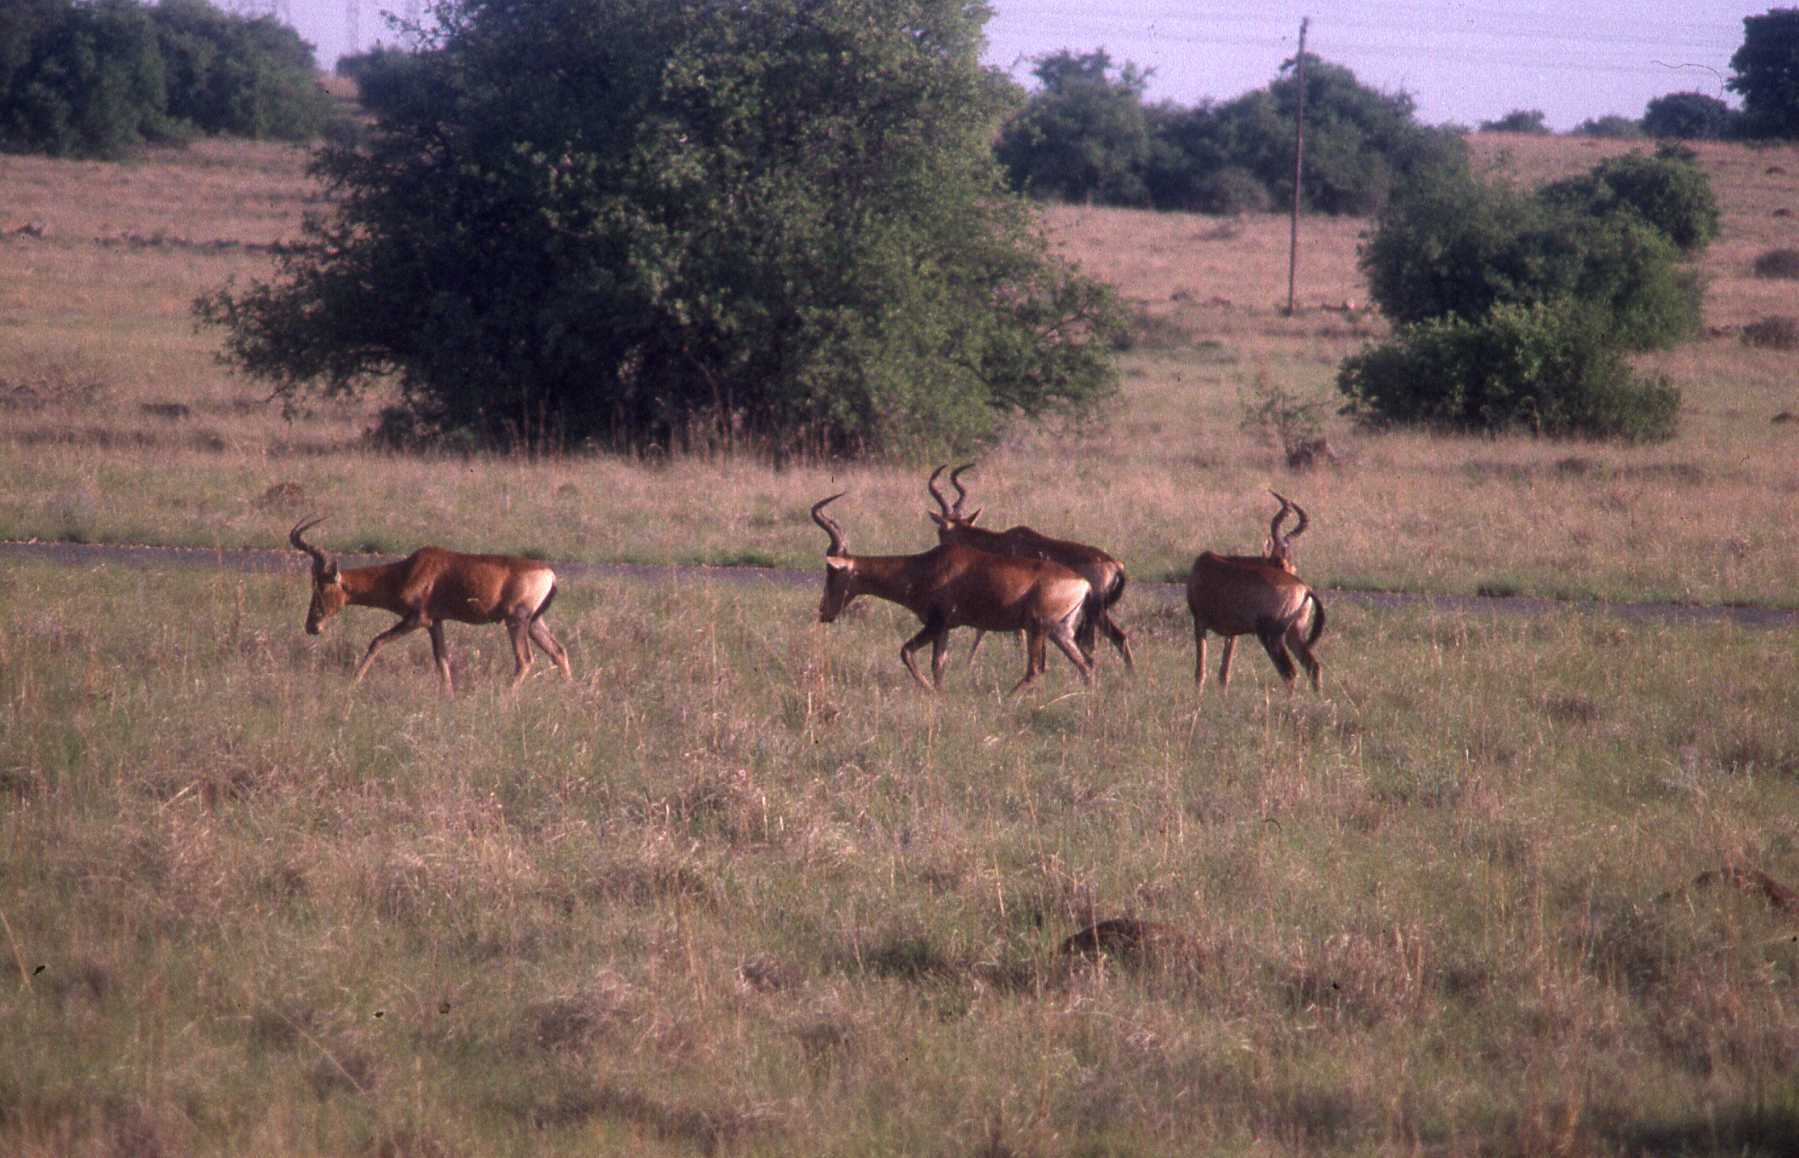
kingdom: Animalia
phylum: Chordata
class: Mammalia
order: Artiodactyla
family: Bovidae
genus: Alcelaphus
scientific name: Alcelaphus caama
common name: Red hartebeest
